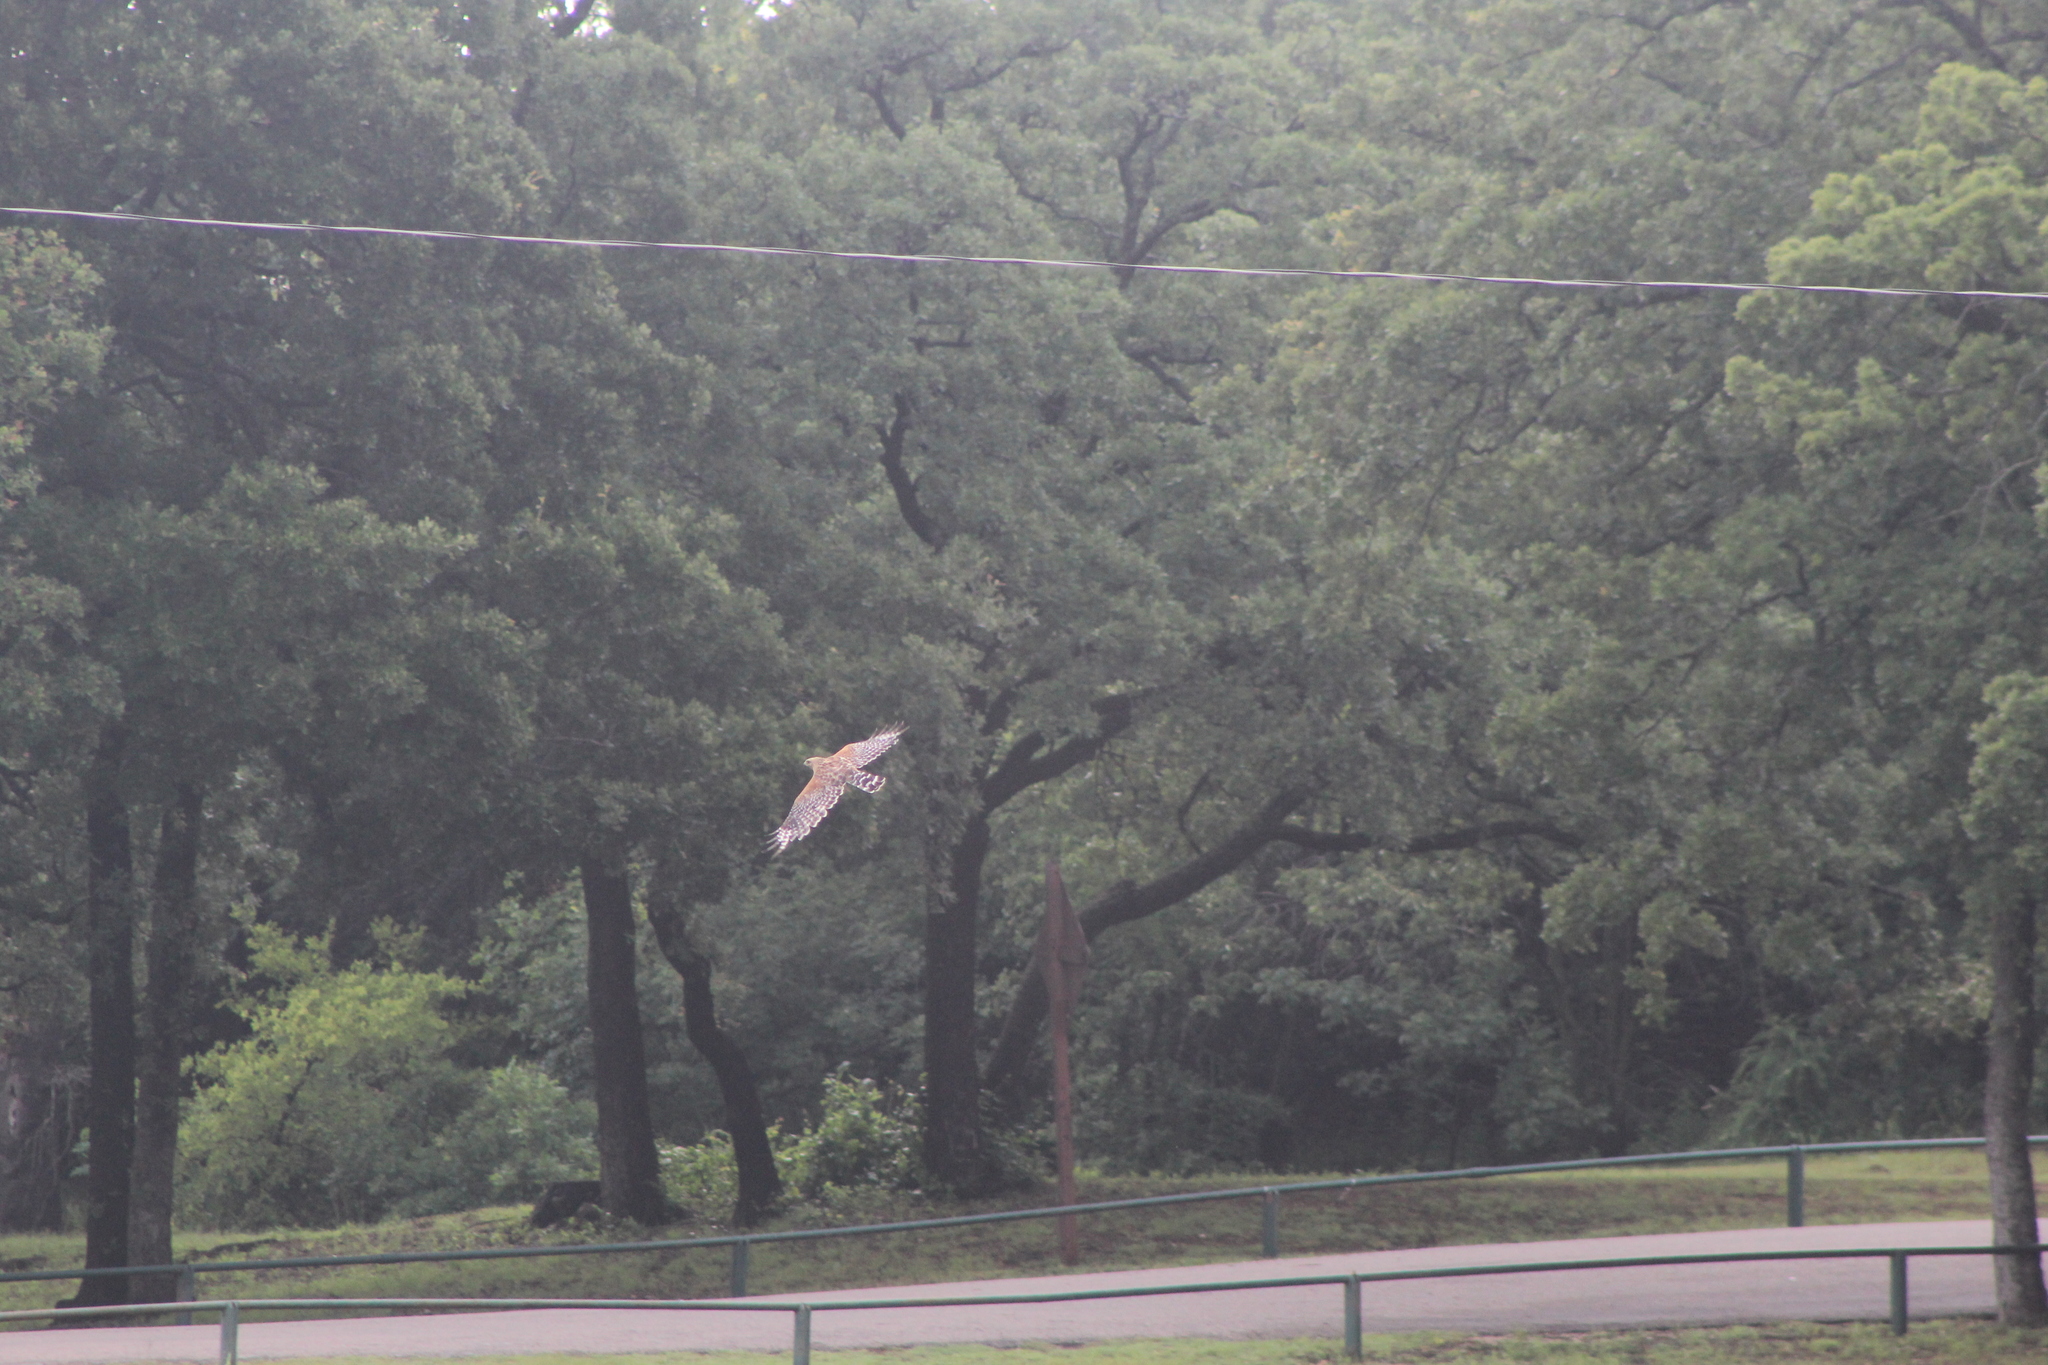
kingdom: Animalia
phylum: Chordata
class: Aves
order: Accipitriformes
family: Accipitridae
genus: Buteo
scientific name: Buteo lineatus
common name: Red-shouldered hawk
